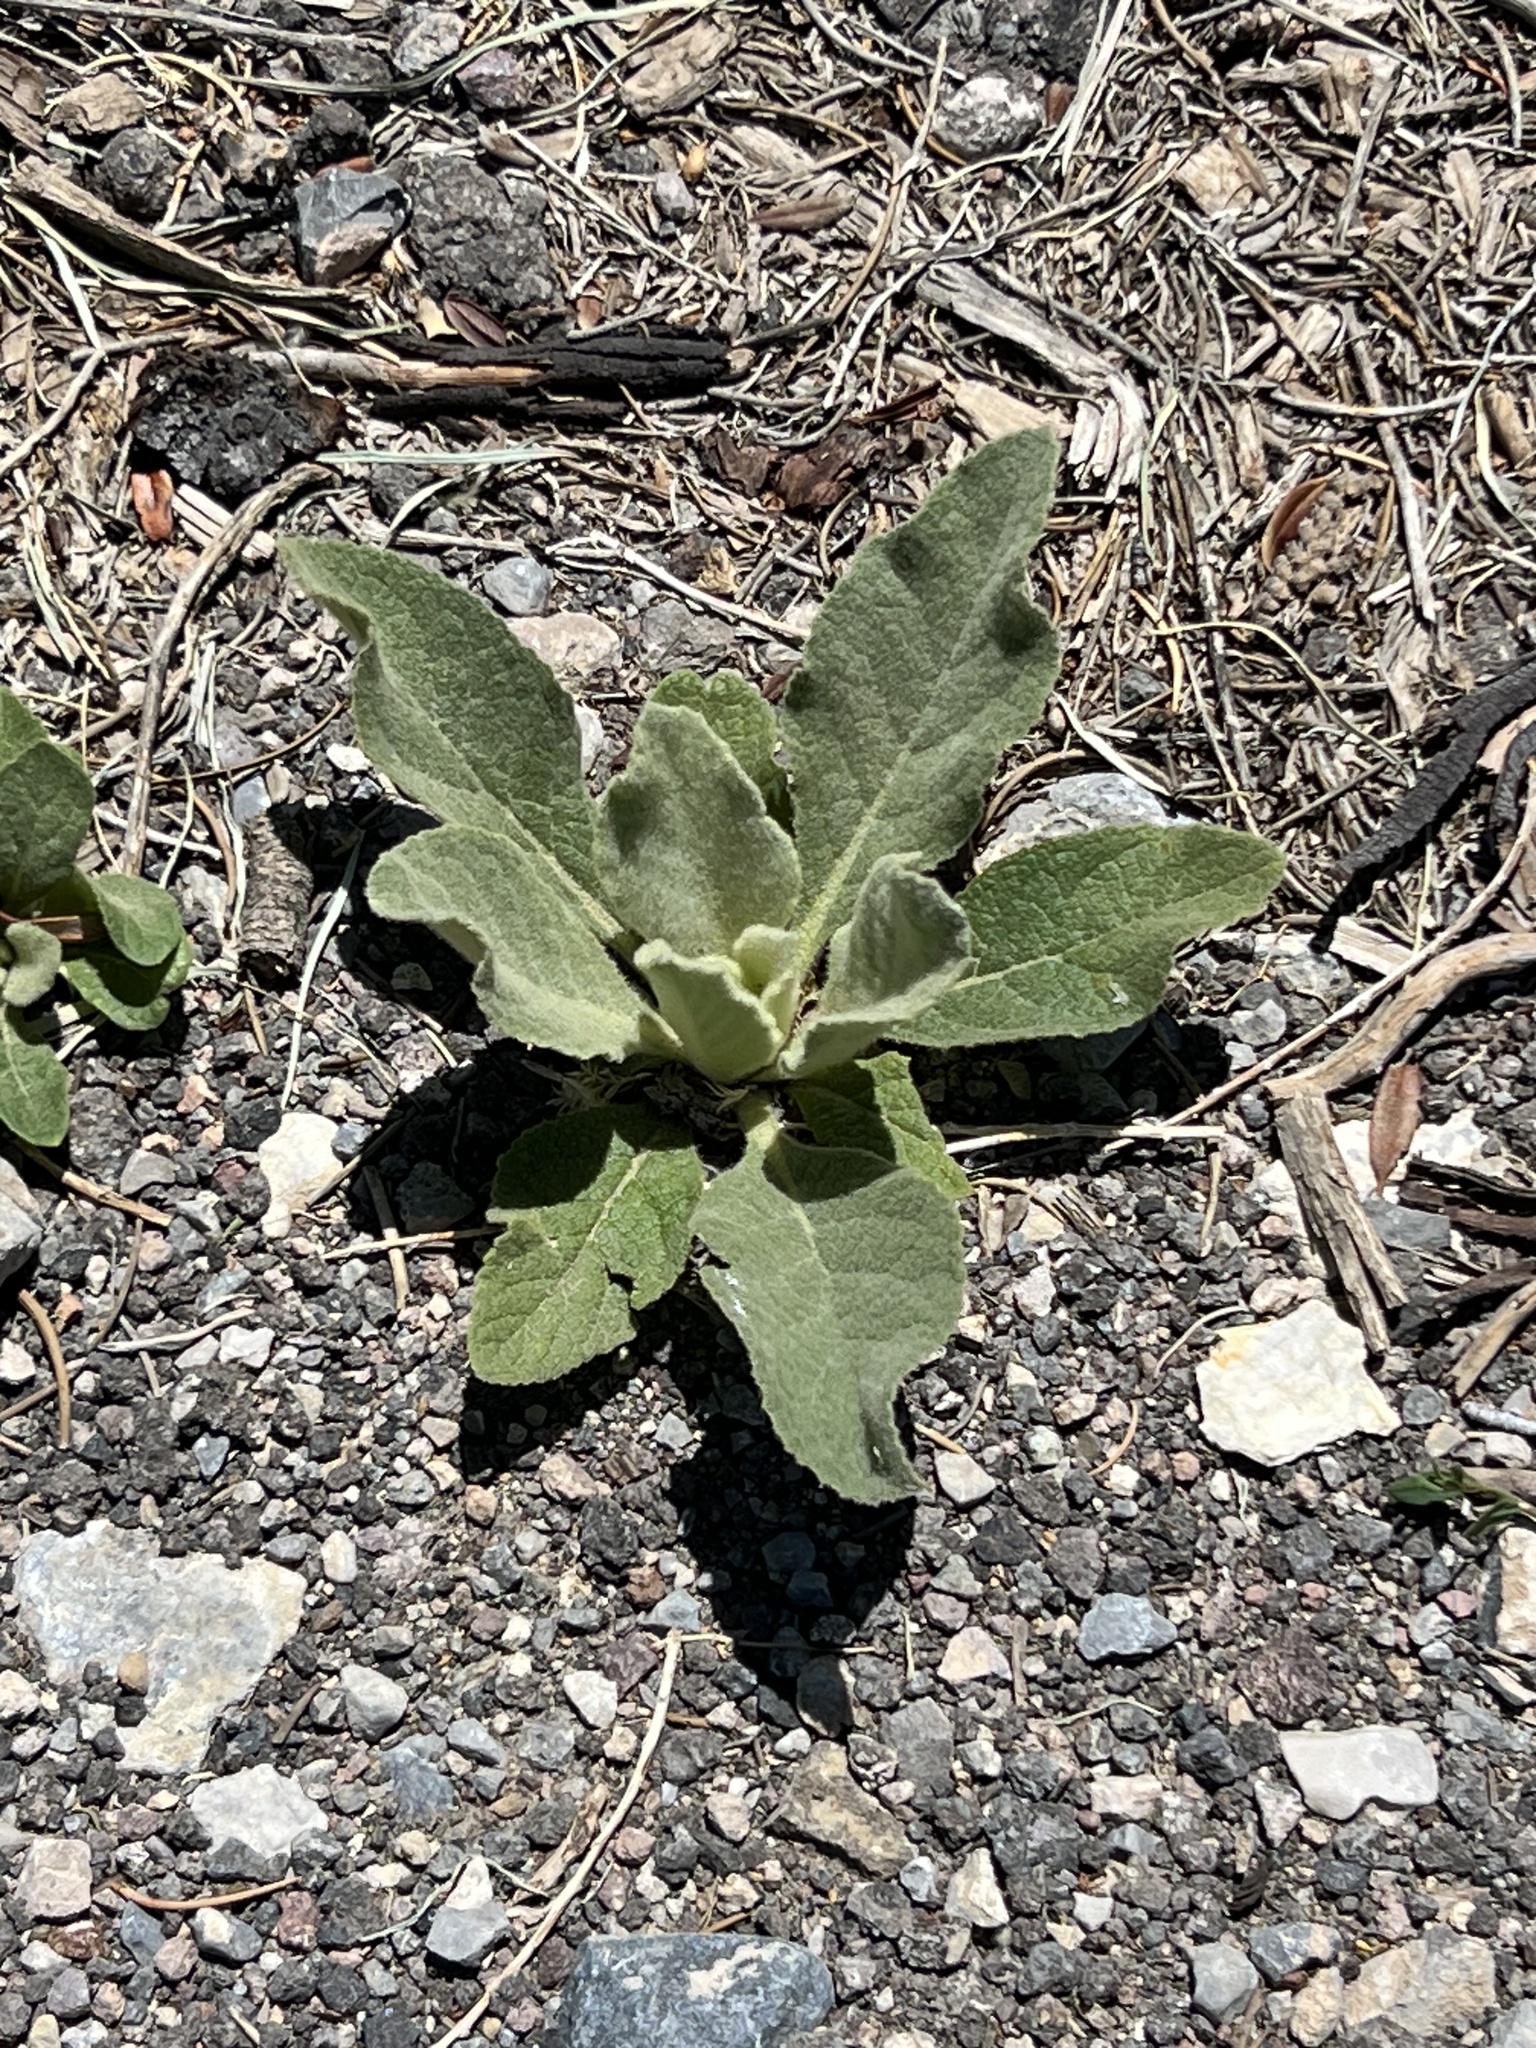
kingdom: Plantae
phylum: Tracheophyta
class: Magnoliopsida
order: Lamiales
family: Scrophulariaceae
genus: Verbascum
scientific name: Verbascum thapsus
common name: Common mullein
